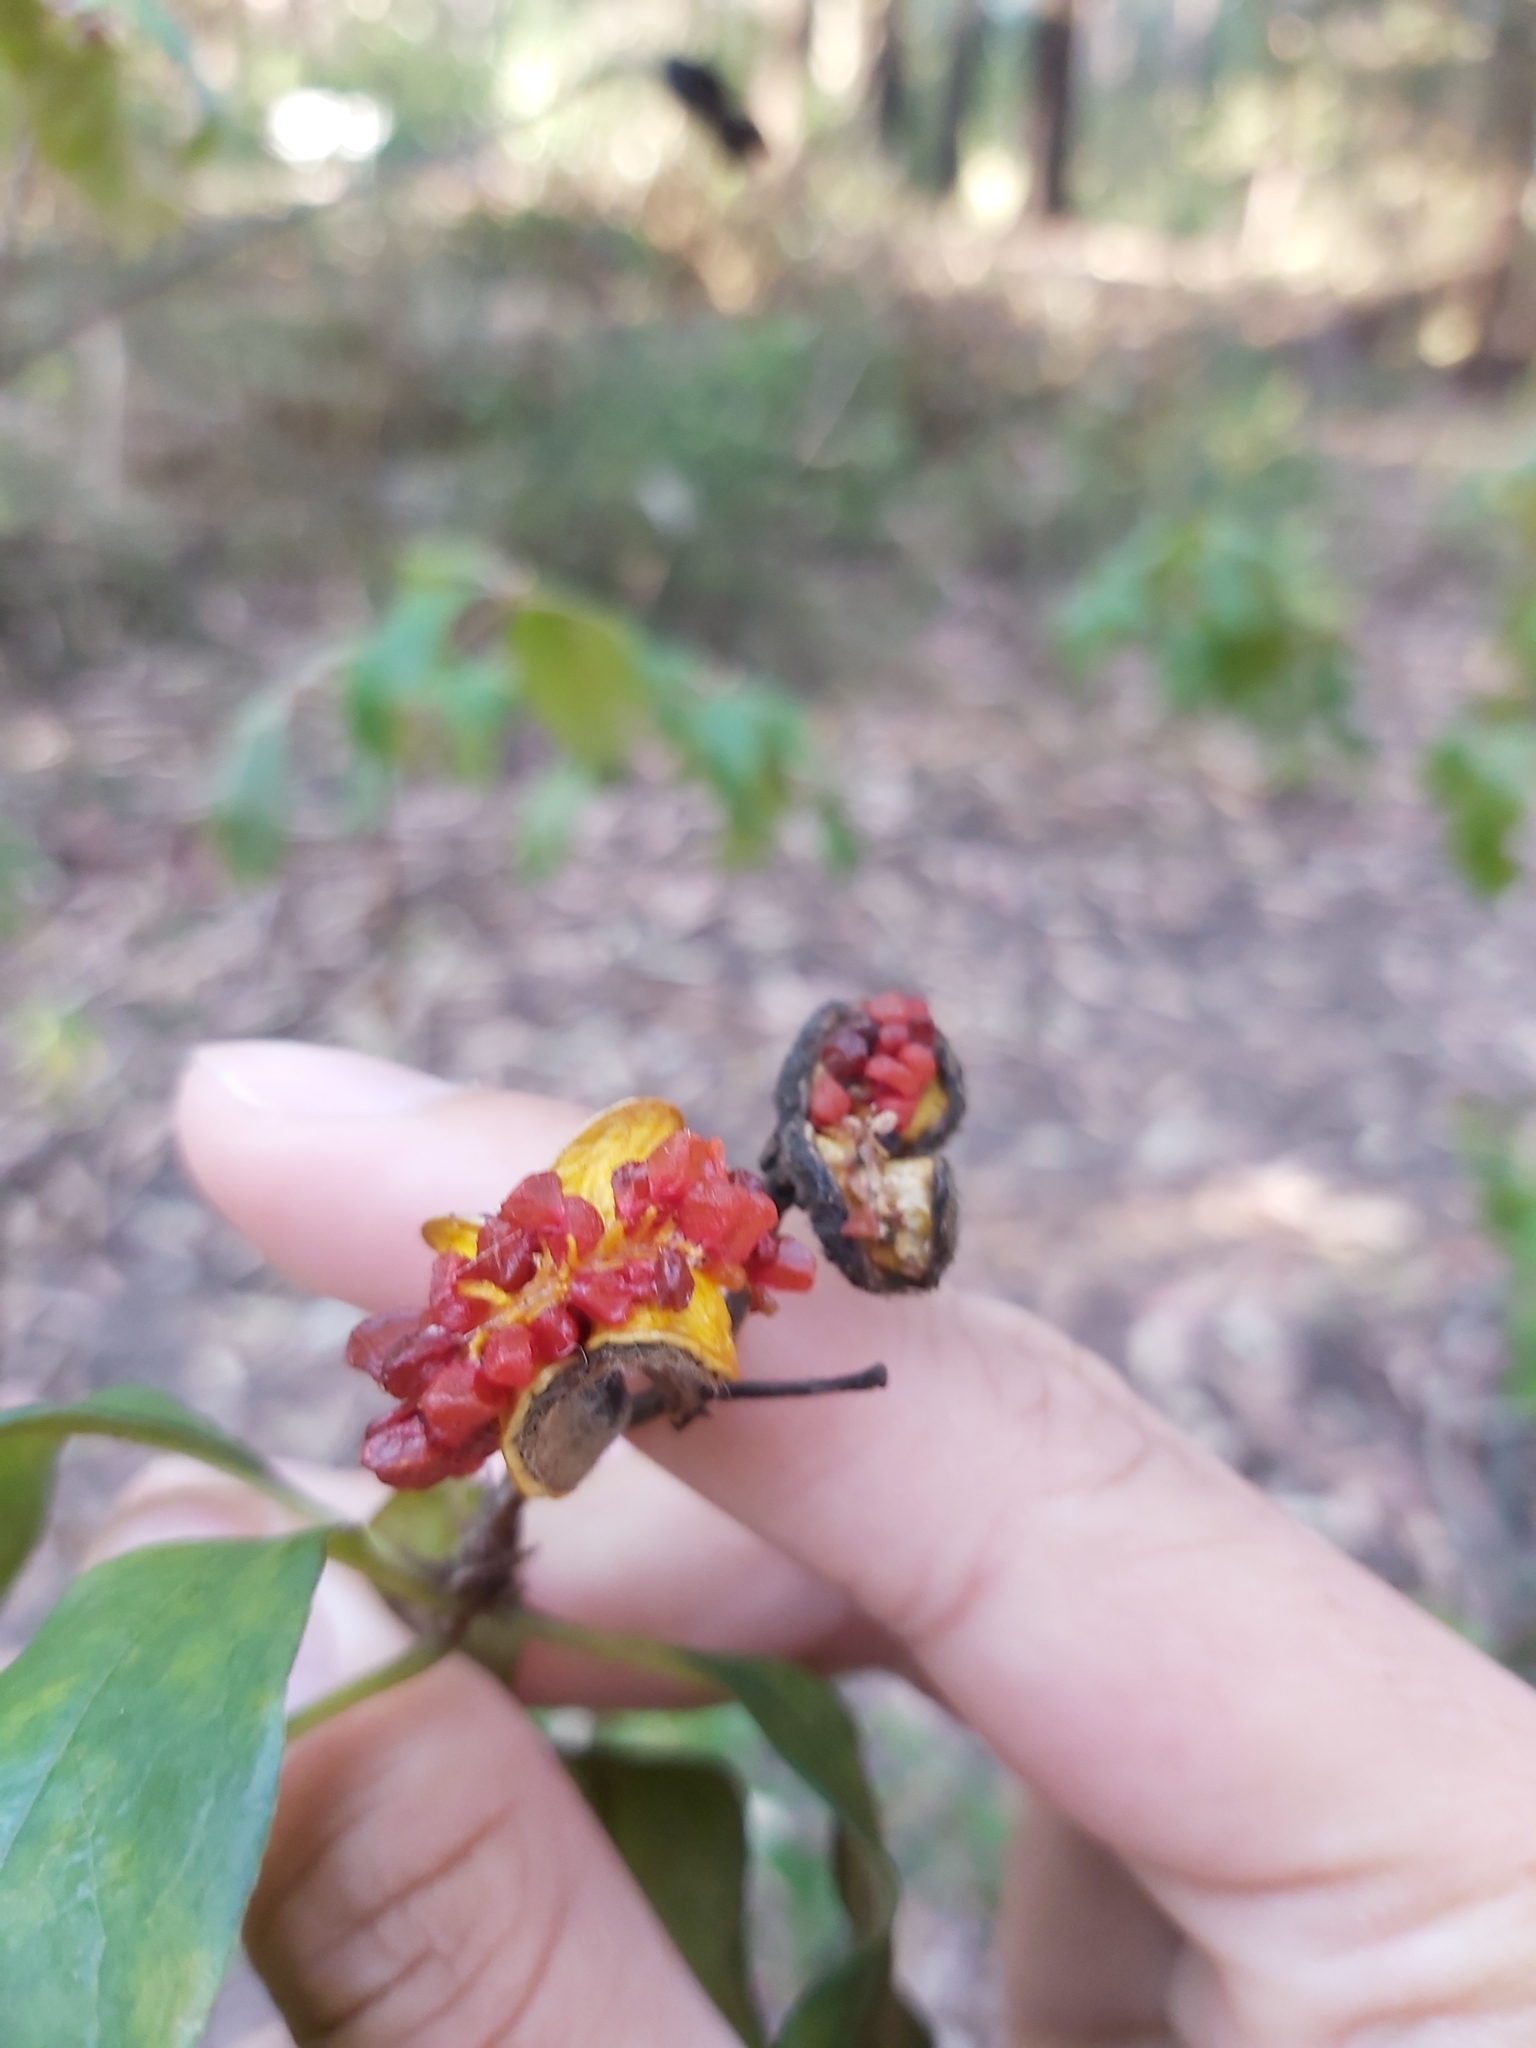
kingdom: Plantae
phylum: Tracheophyta
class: Magnoliopsida
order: Apiales
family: Pittosporaceae
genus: Pittosporum
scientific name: Pittosporum revolutum
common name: Brisbane-laurel
